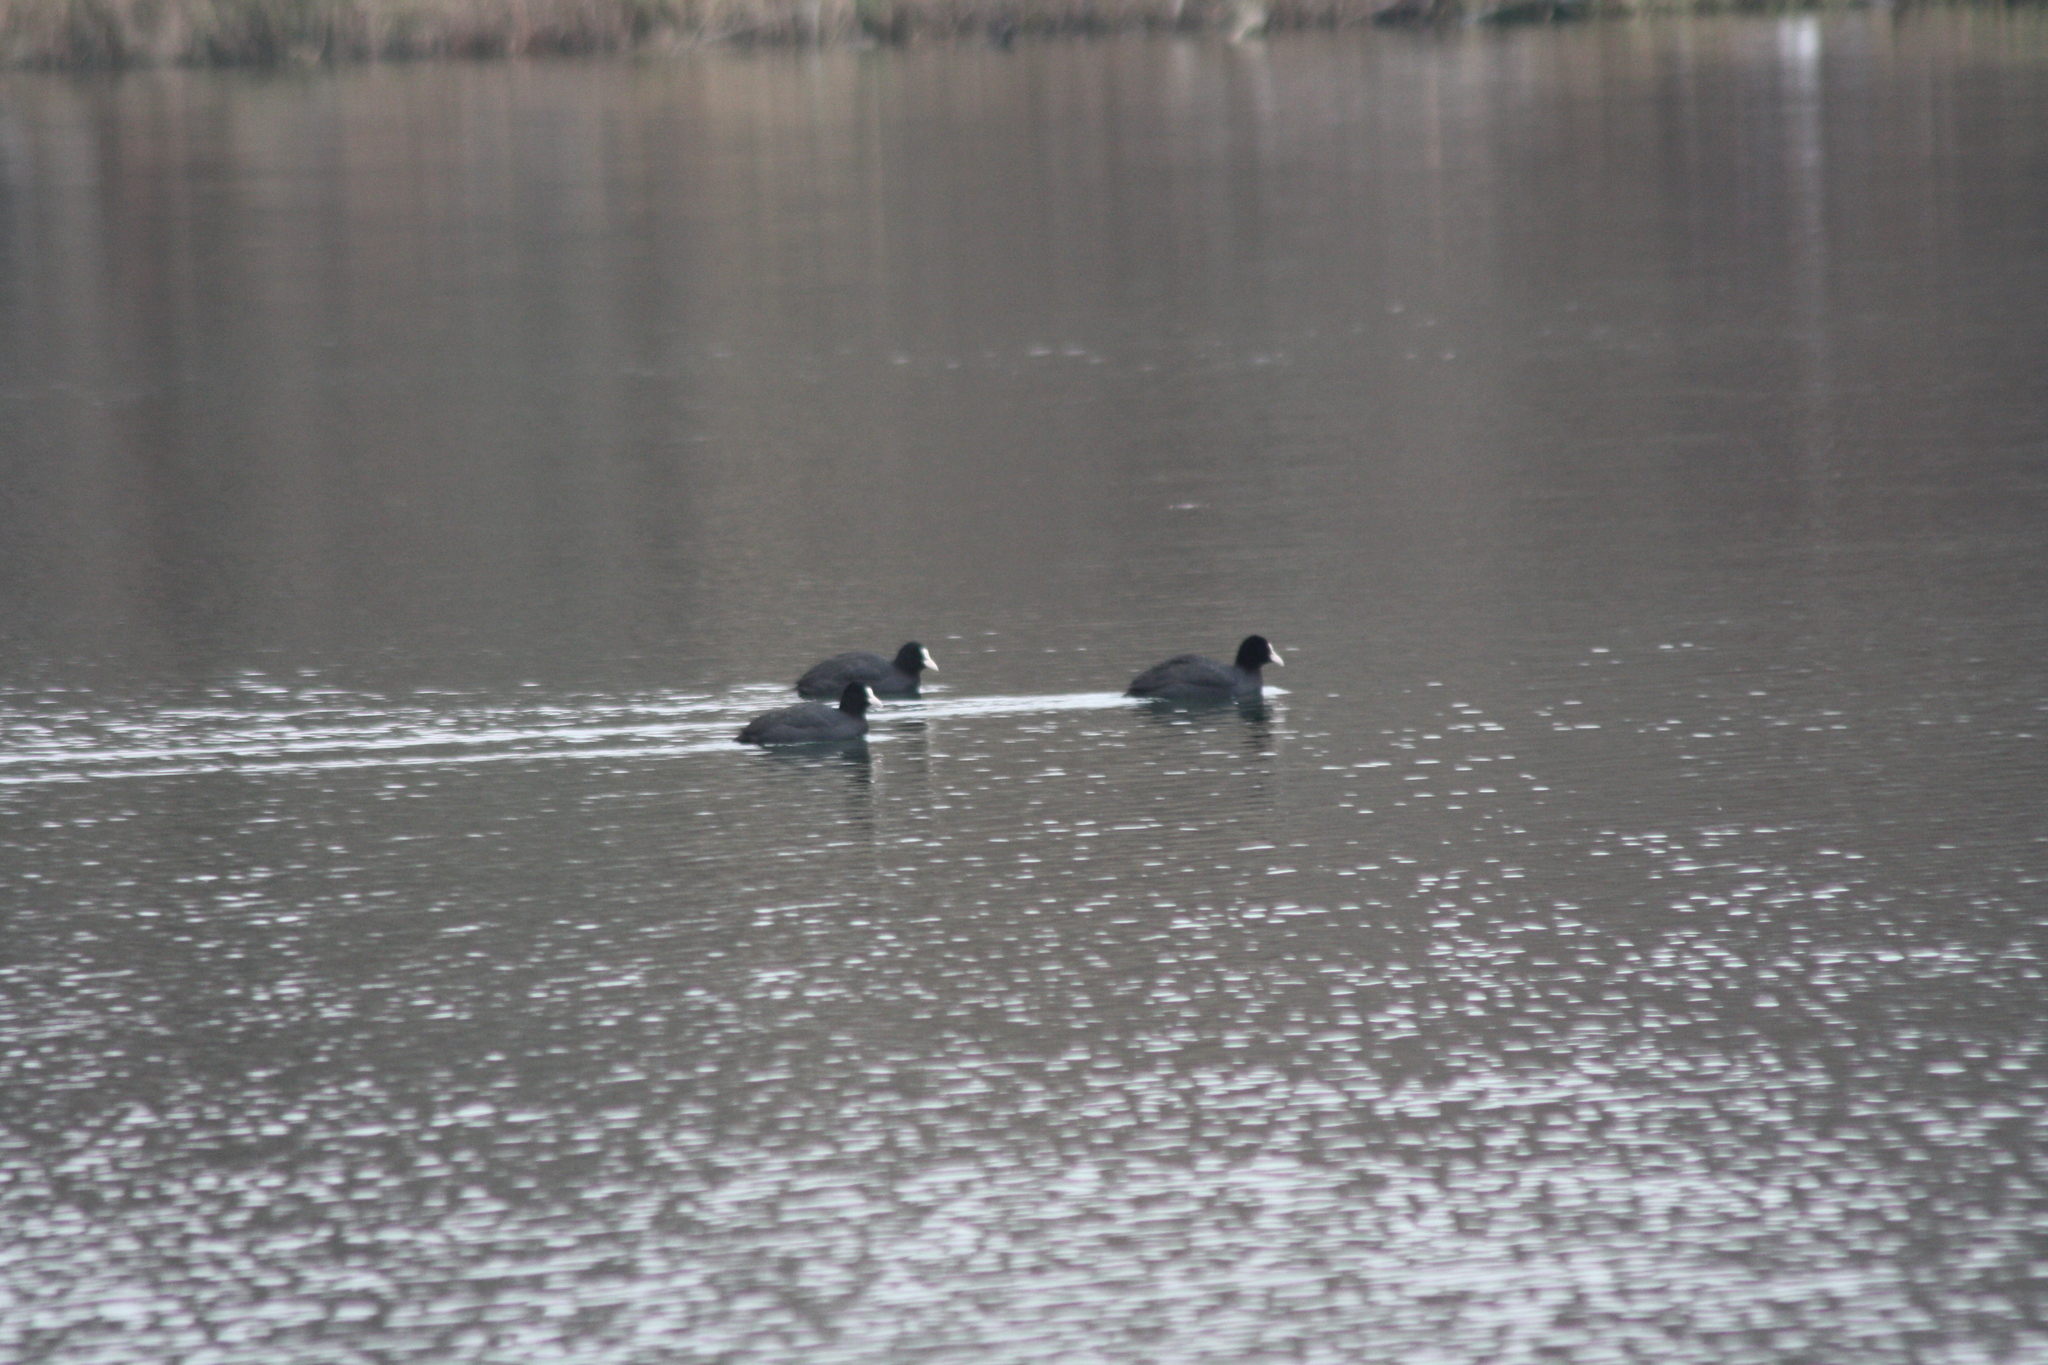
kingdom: Animalia
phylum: Chordata
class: Aves
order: Gruiformes
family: Rallidae
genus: Fulica
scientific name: Fulica atra
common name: Eurasian coot
